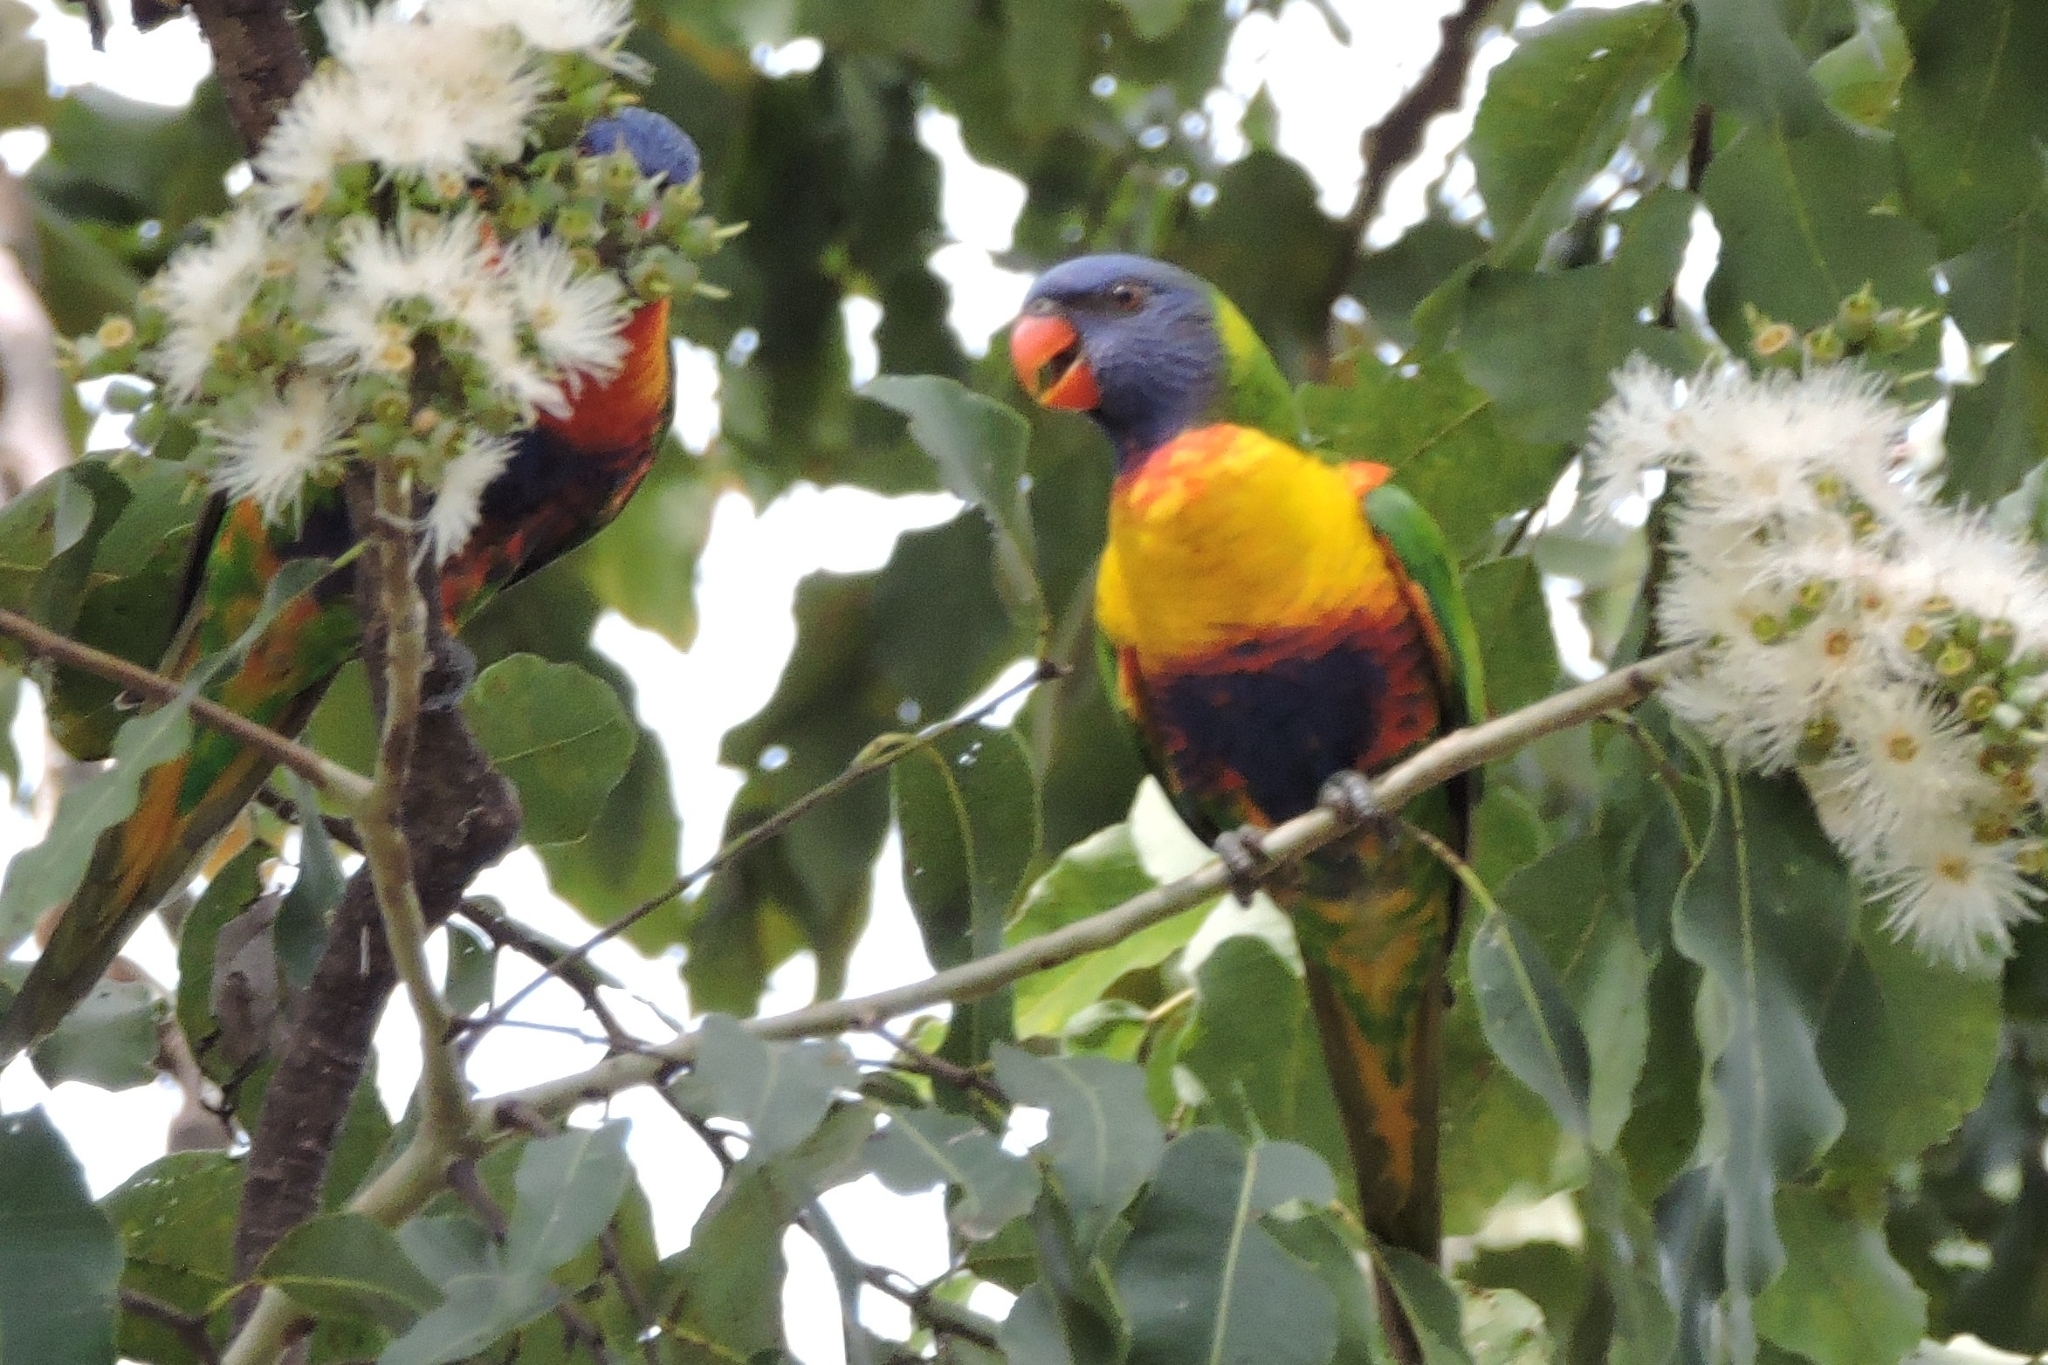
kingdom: Animalia
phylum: Chordata
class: Aves
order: Psittaciformes
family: Psittacidae
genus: Trichoglossus
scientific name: Trichoglossus haematodus
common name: Coconut lorikeet
